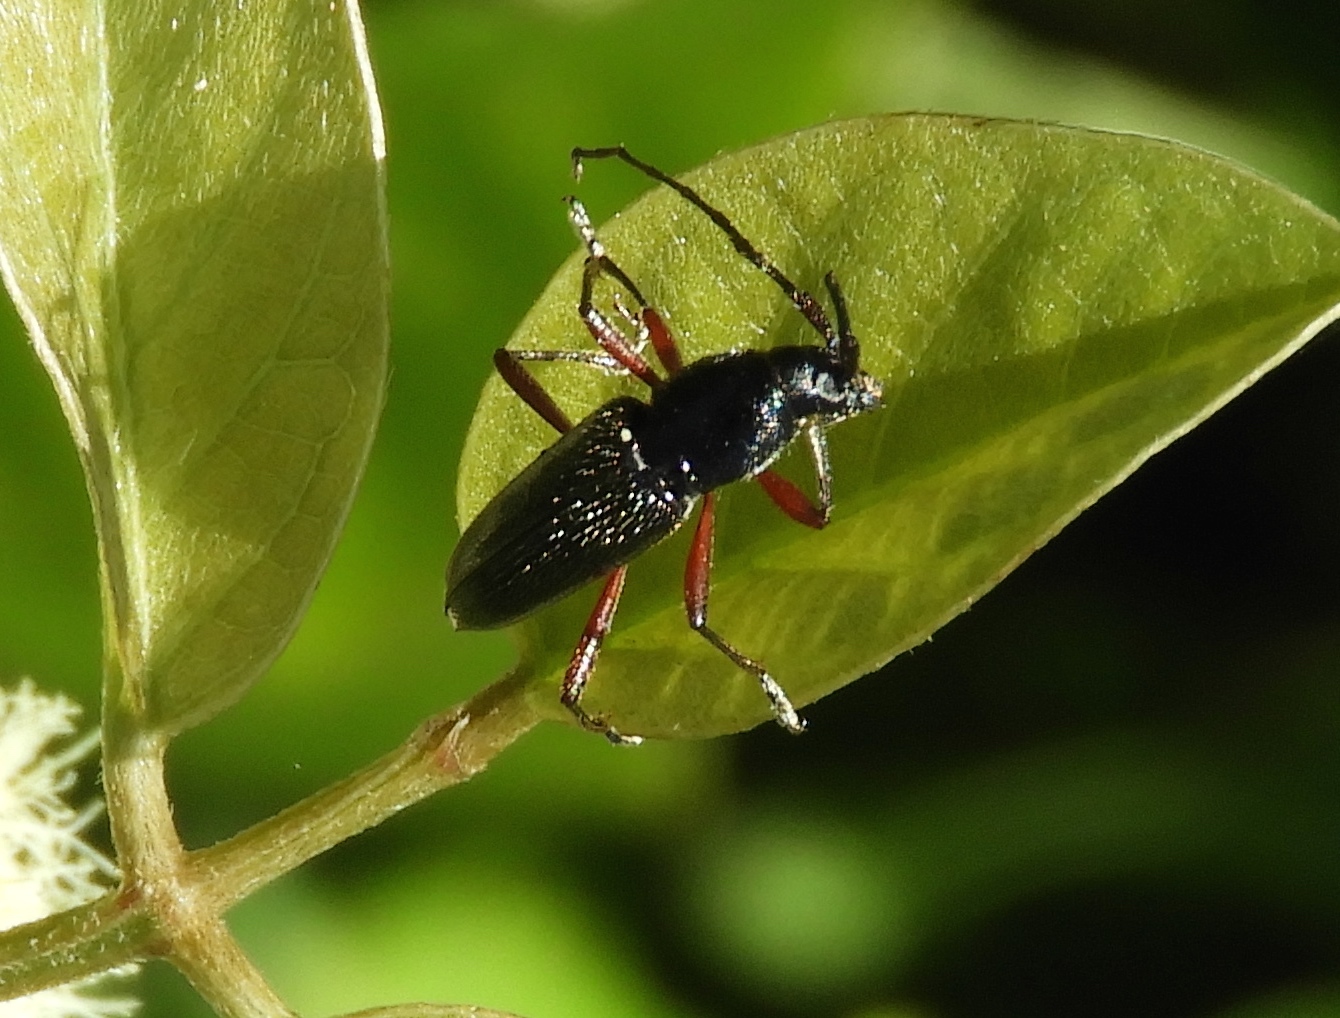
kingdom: Animalia
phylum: Arthropoda
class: Insecta
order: Coleoptera
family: Cerambycidae
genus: Stenosphenus
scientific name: Stenosphenus
